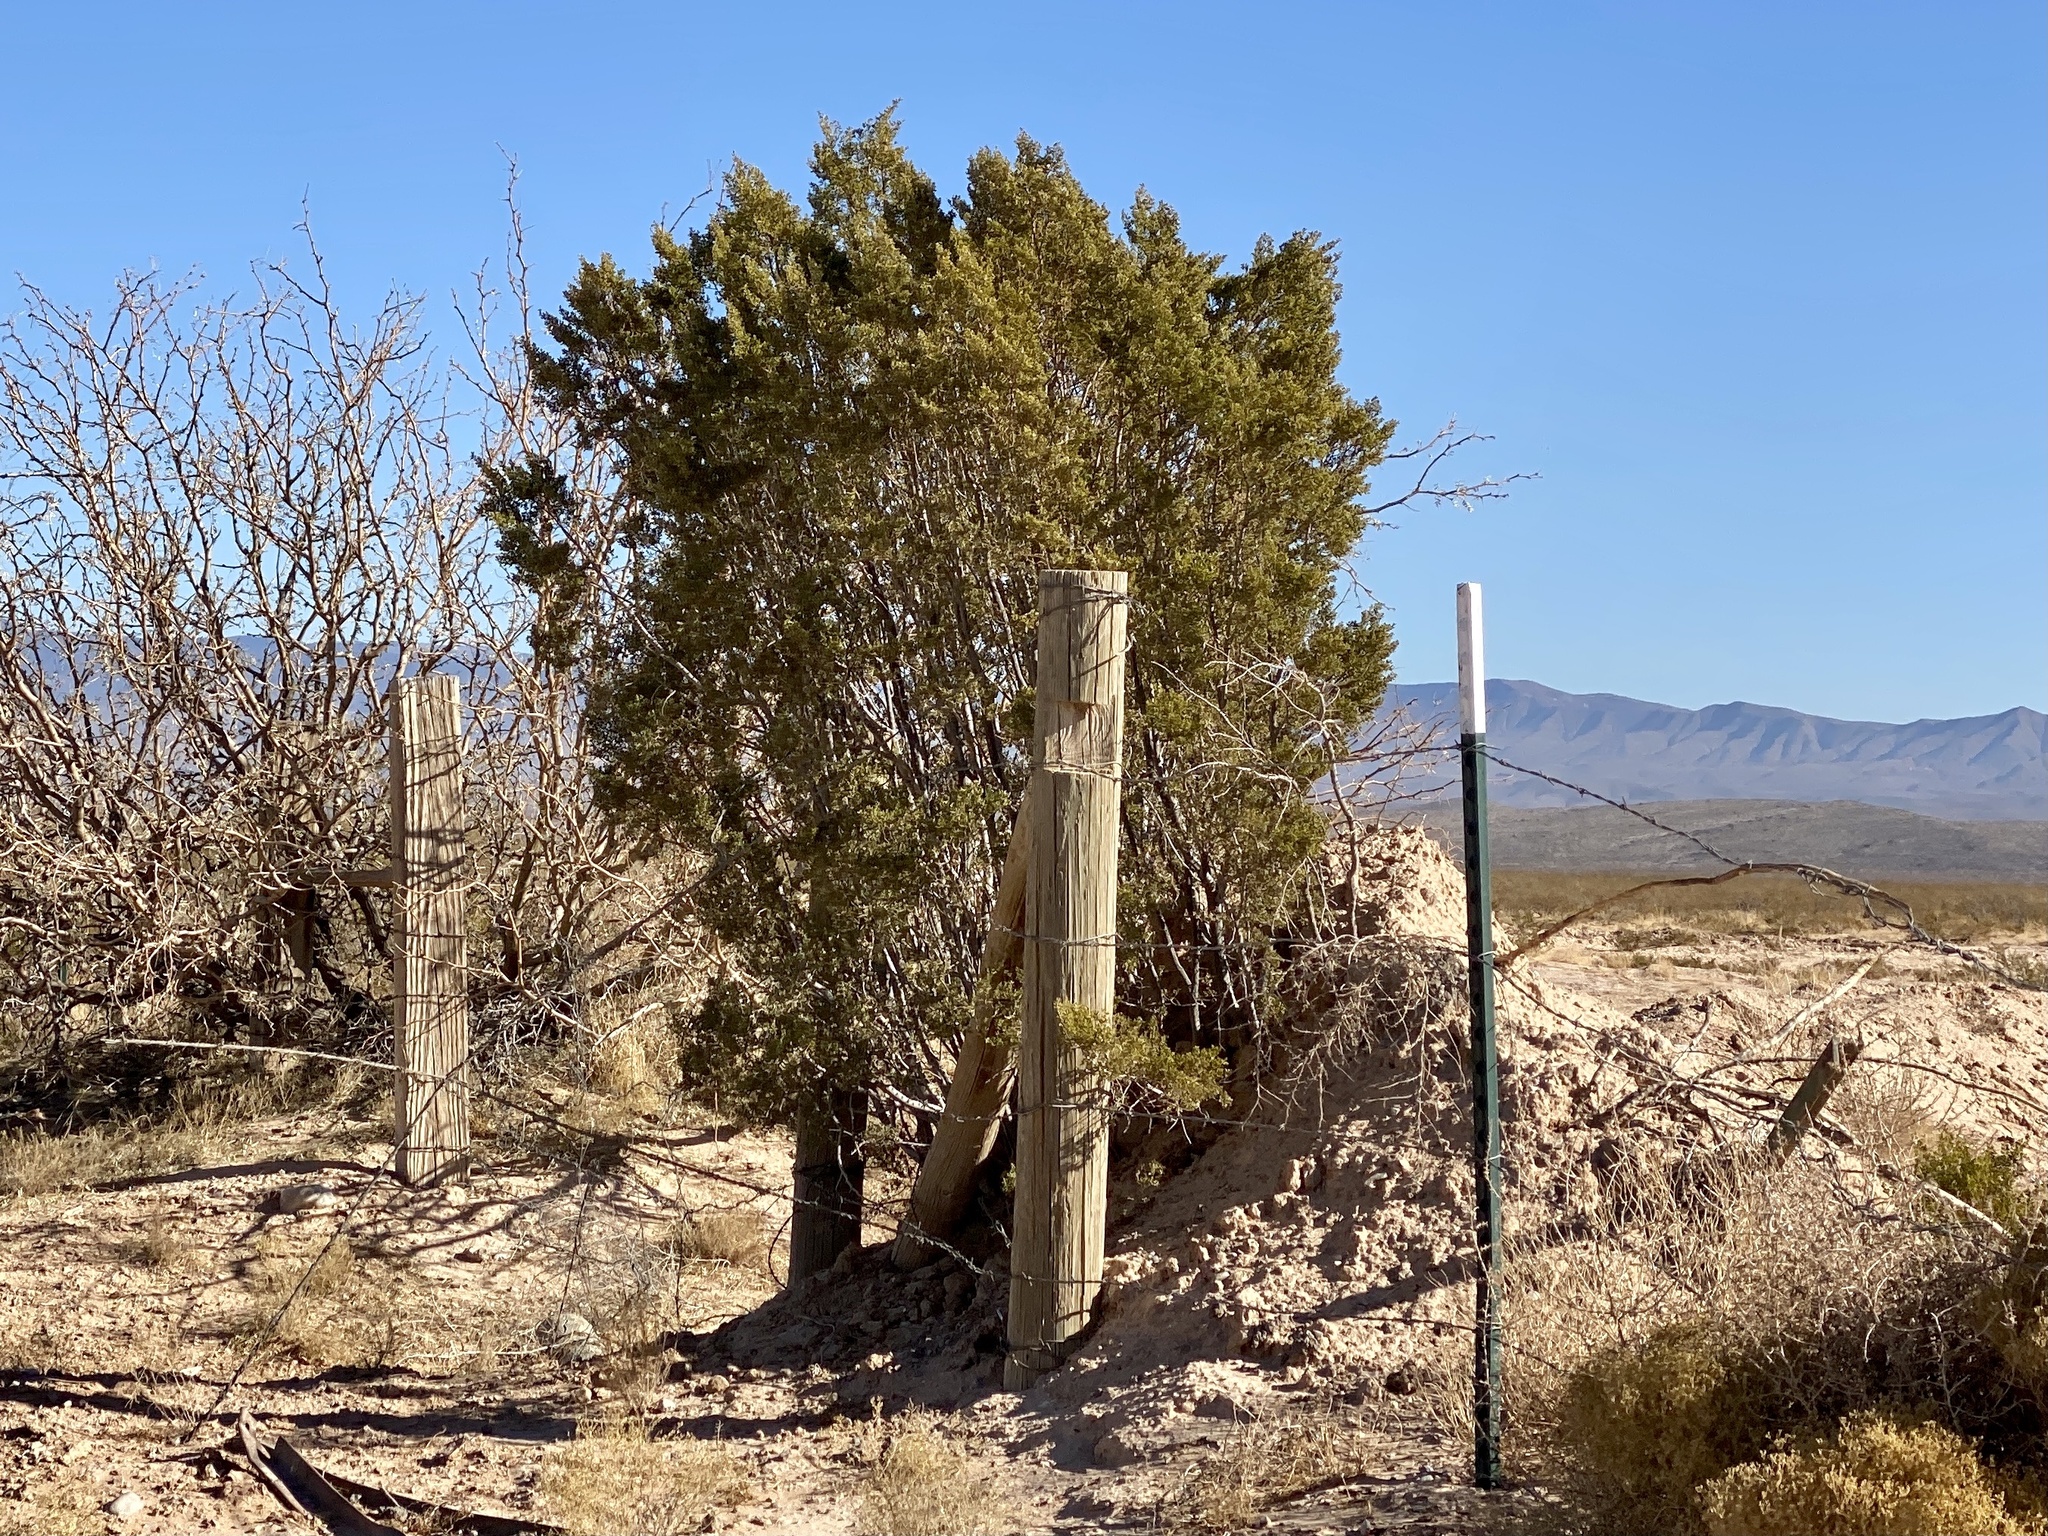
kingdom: Plantae
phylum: Tracheophyta
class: Magnoliopsida
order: Zygophyllales
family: Zygophyllaceae
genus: Larrea
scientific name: Larrea tridentata
